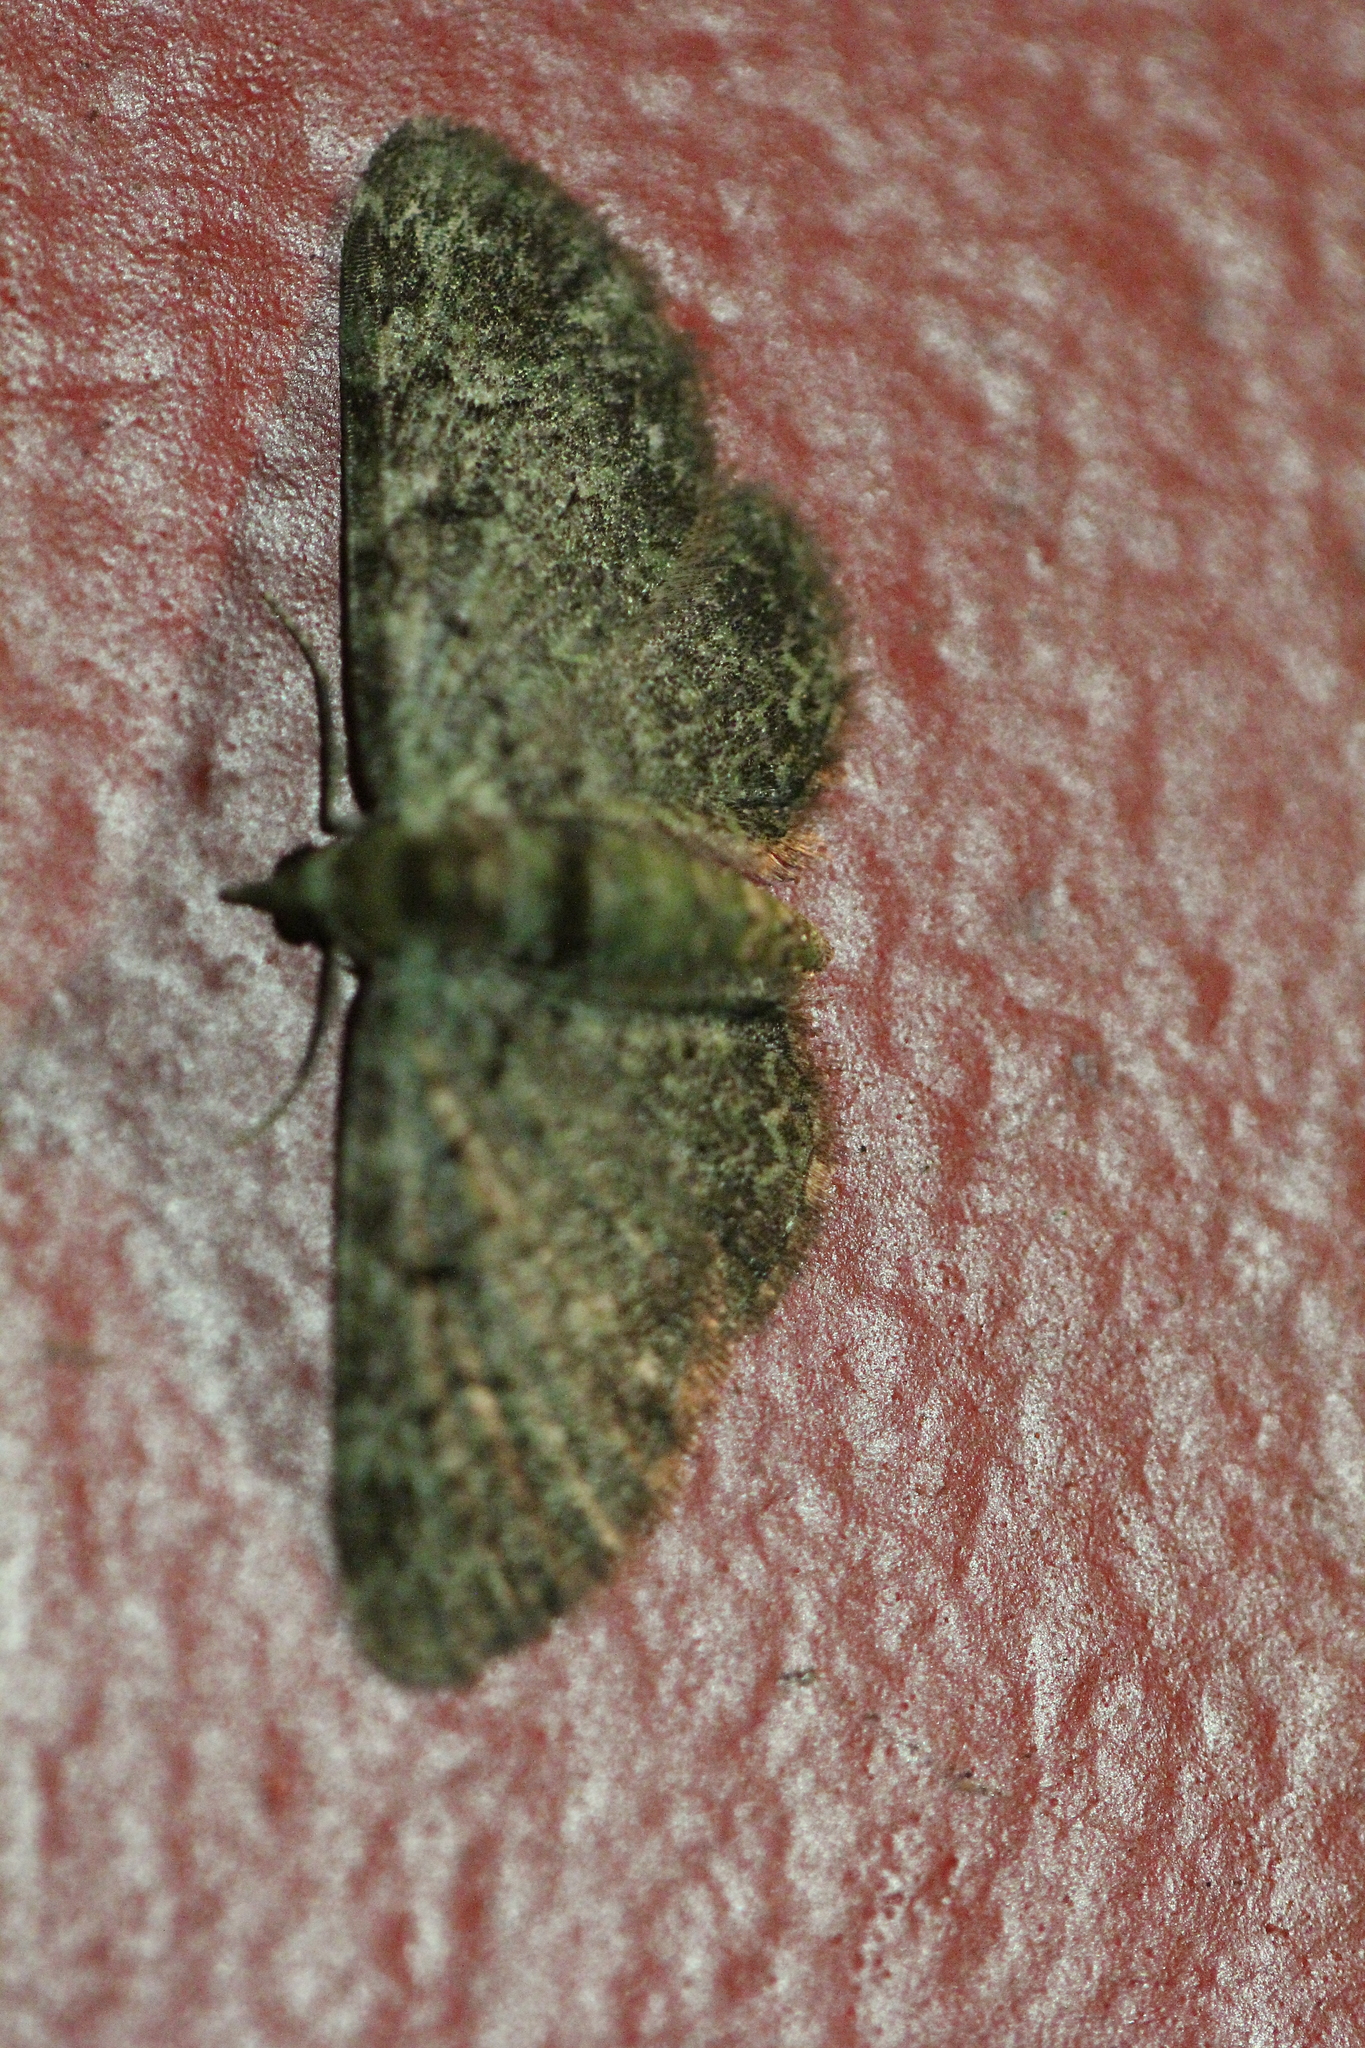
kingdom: Animalia
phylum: Arthropoda
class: Insecta
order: Lepidoptera
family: Geometridae
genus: Pasiphila
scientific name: Pasiphila rectangulata
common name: Green pug
